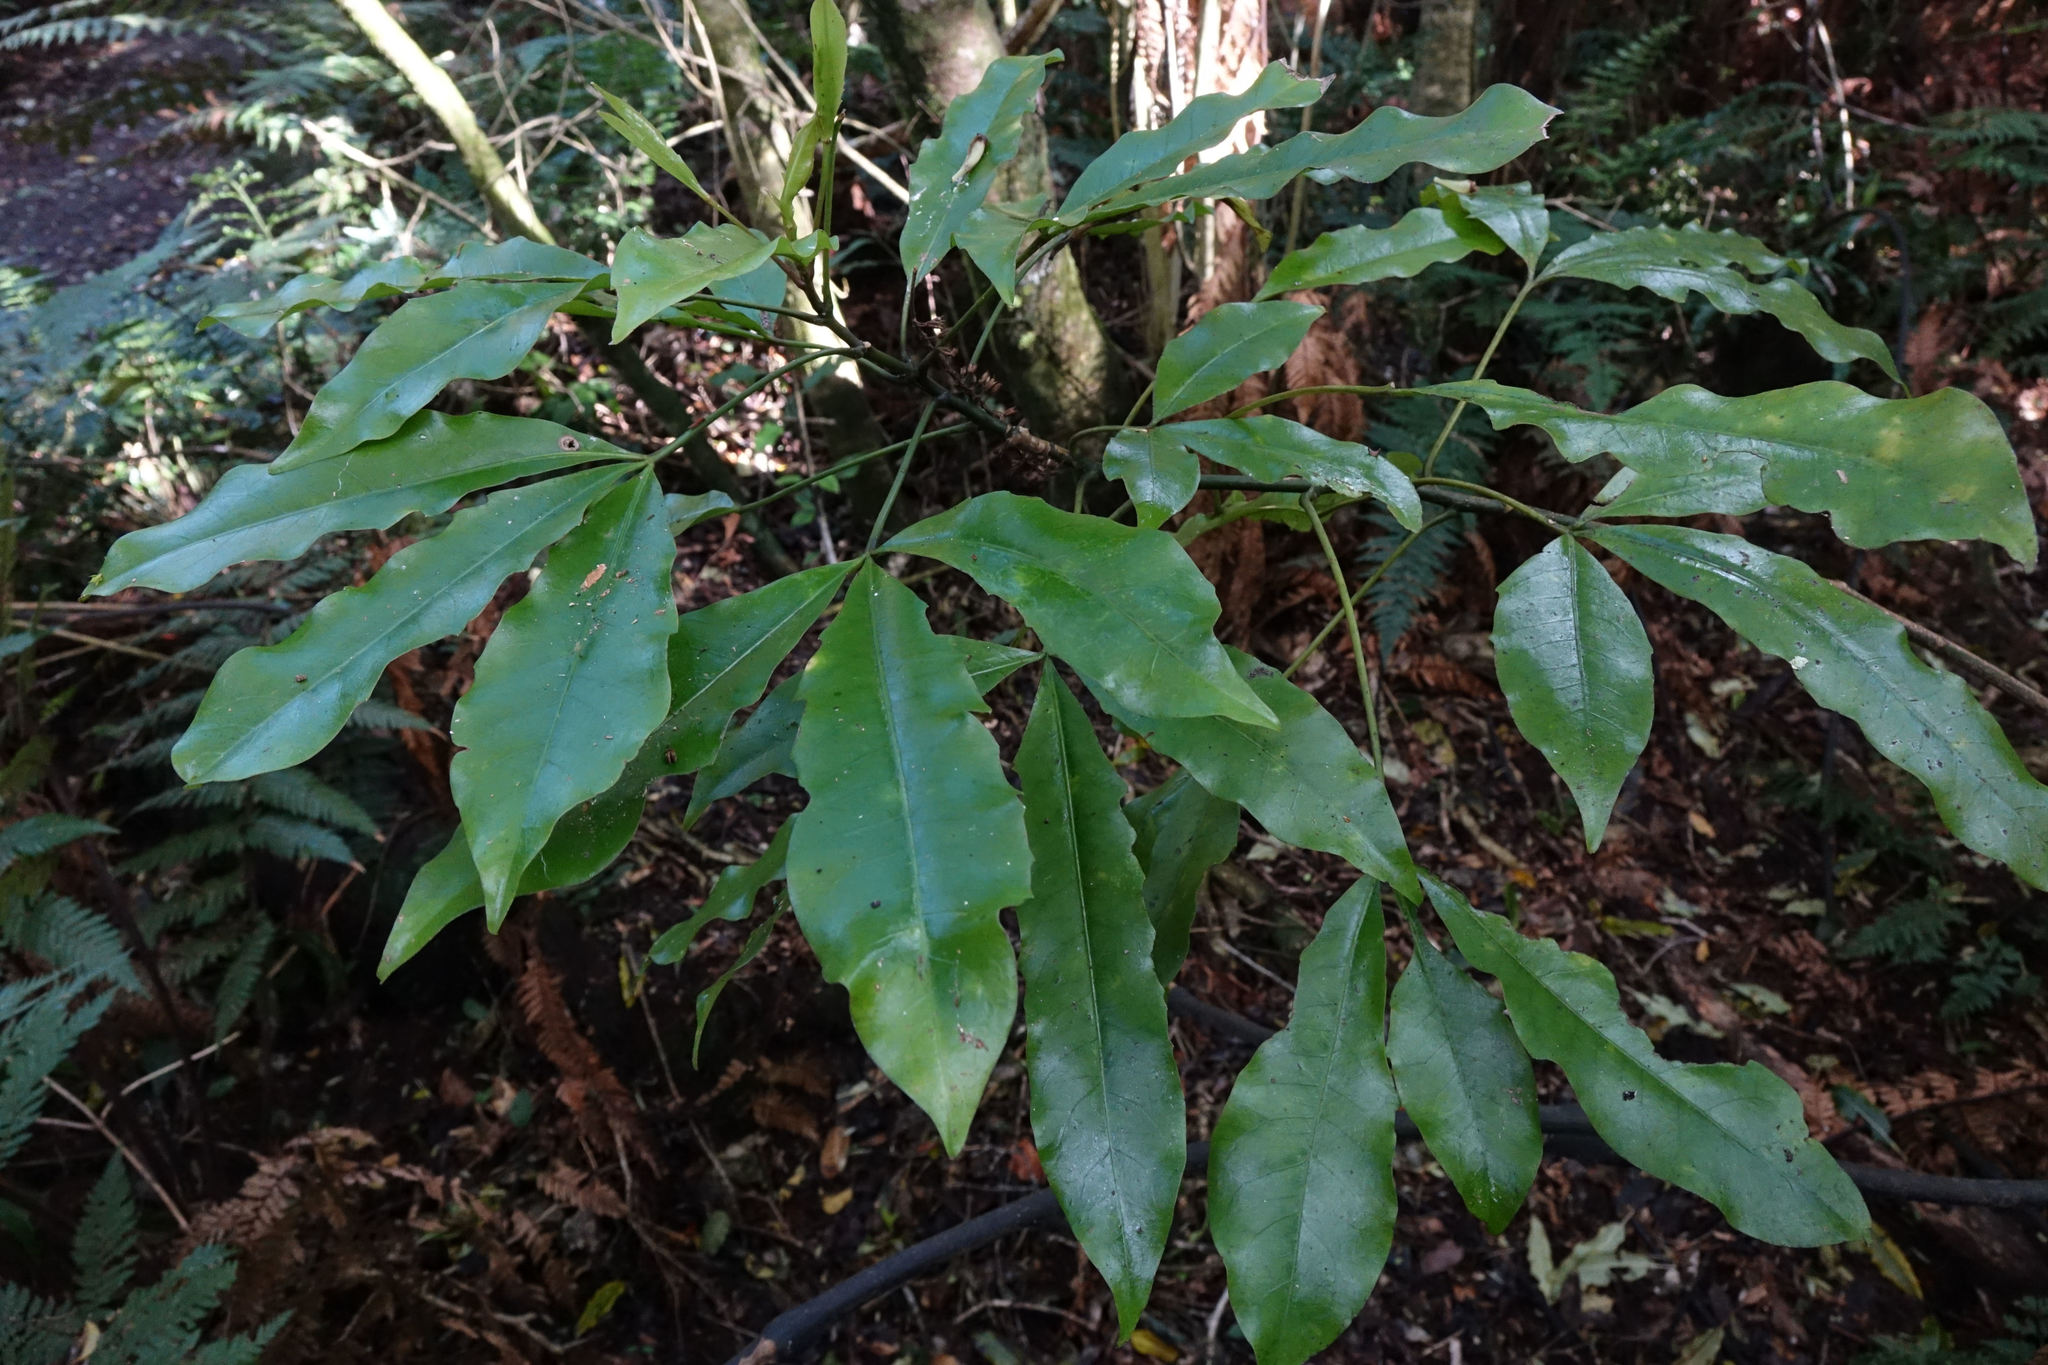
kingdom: Plantae
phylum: Tracheophyta
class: Magnoliopsida
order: Apiales
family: Araliaceae
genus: Raukaua
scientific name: Raukaua edgerleyi
